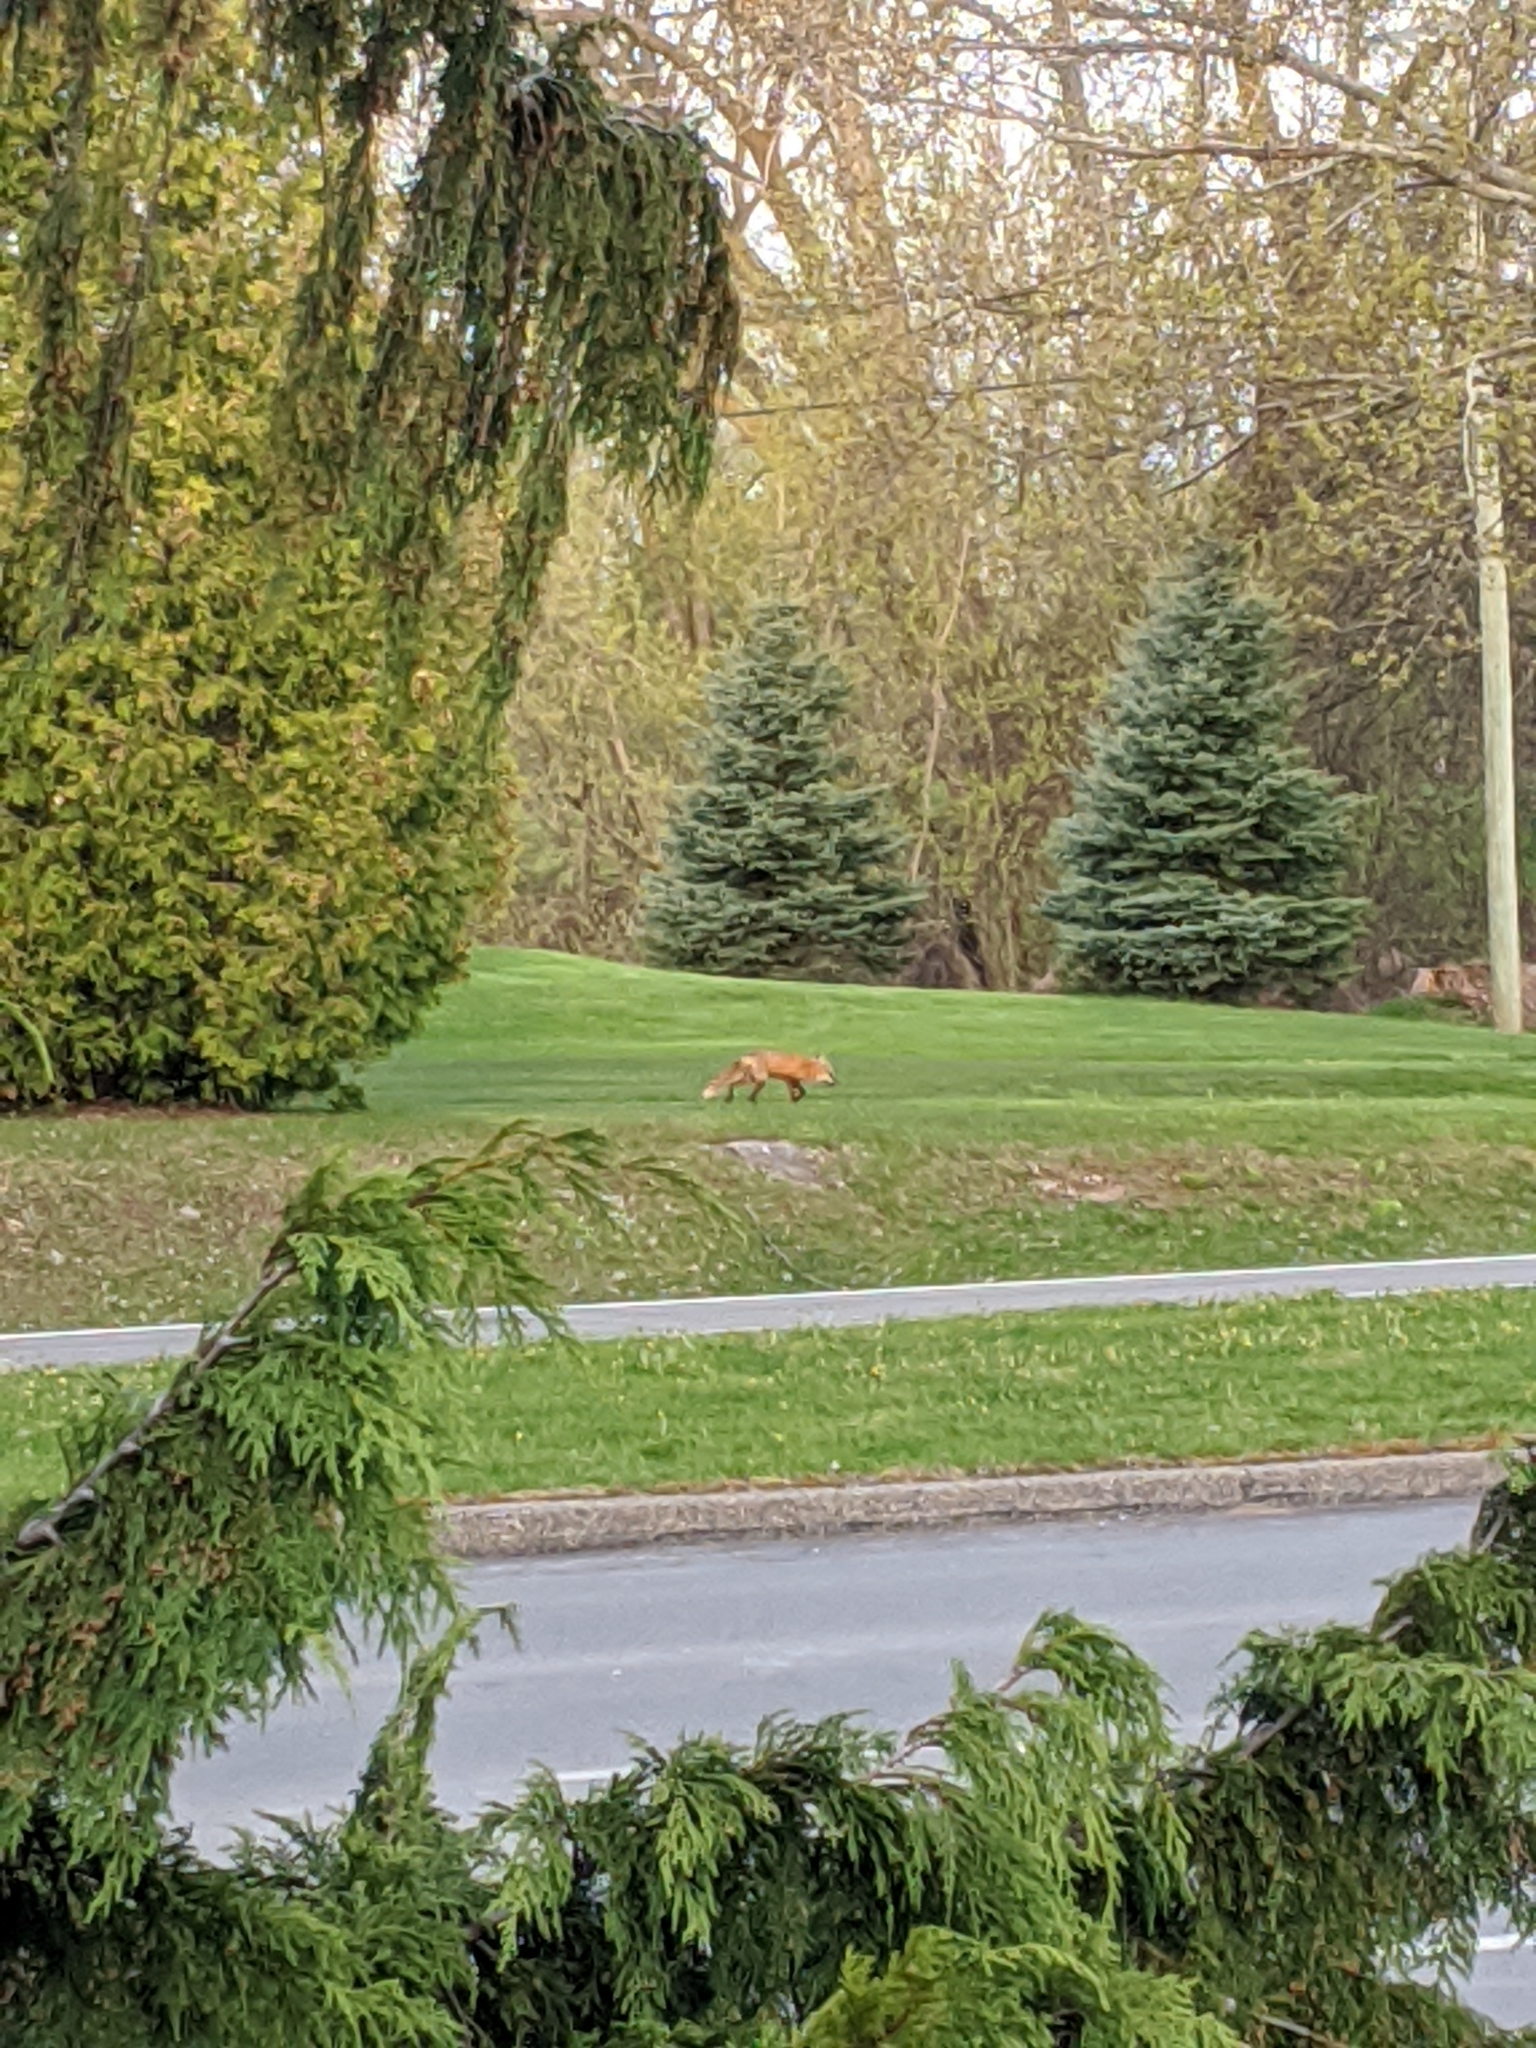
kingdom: Animalia
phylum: Chordata
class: Mammalia
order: Carnivora
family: Canidae
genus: Vulpes
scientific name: Vulpes vulpes
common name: Red fox
